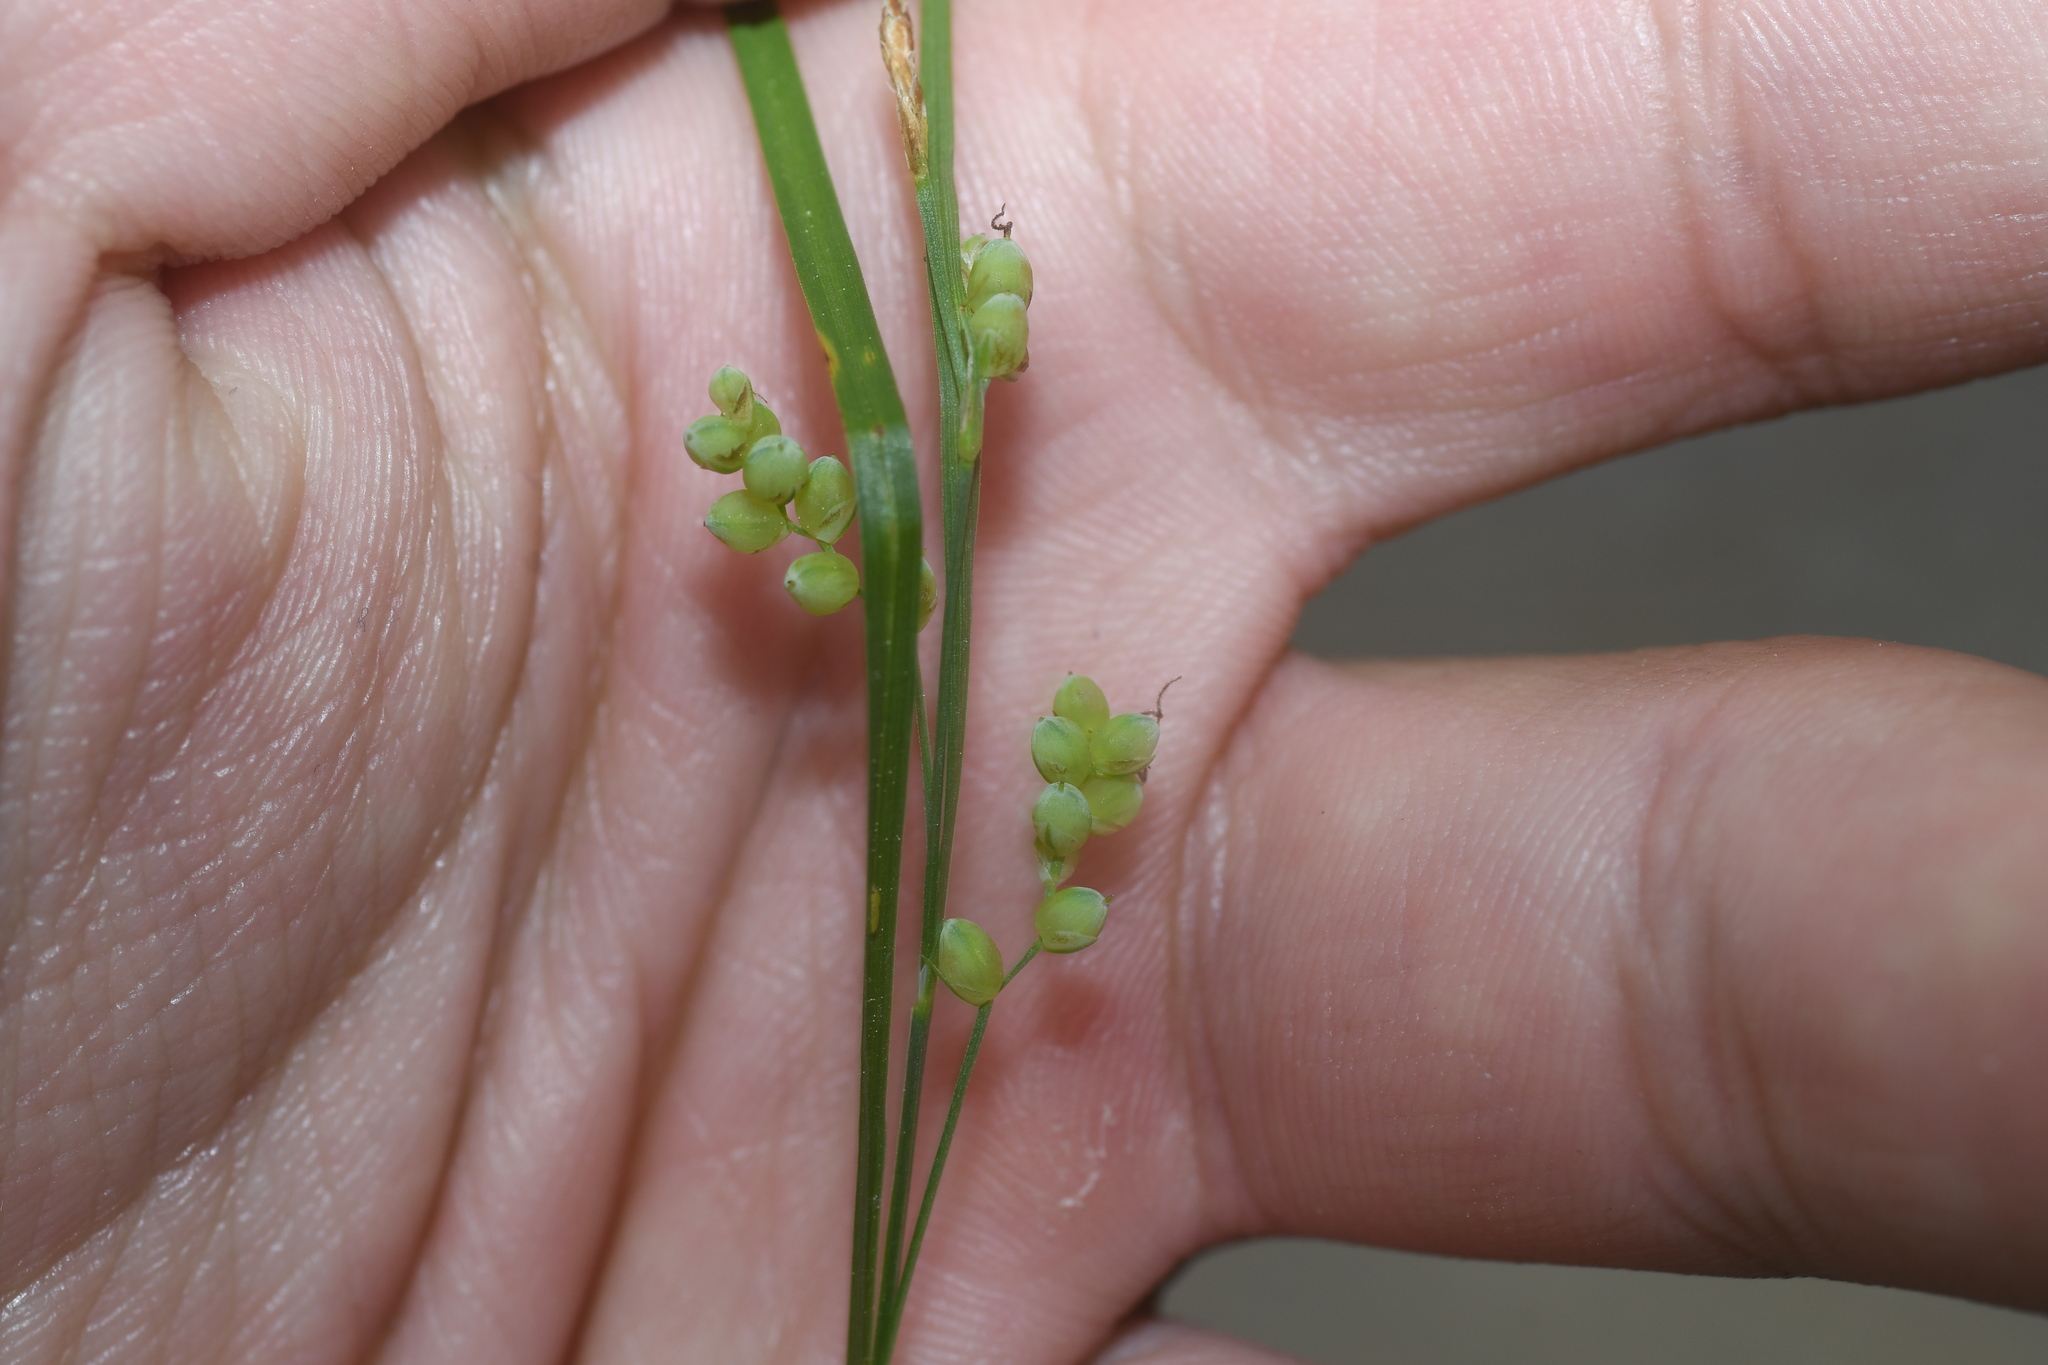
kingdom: Plantae
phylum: Tracheophyta
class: Liliopsida
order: Poales
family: Cyperaceae
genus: Carex
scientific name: Carex aurea
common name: Golden sedge
